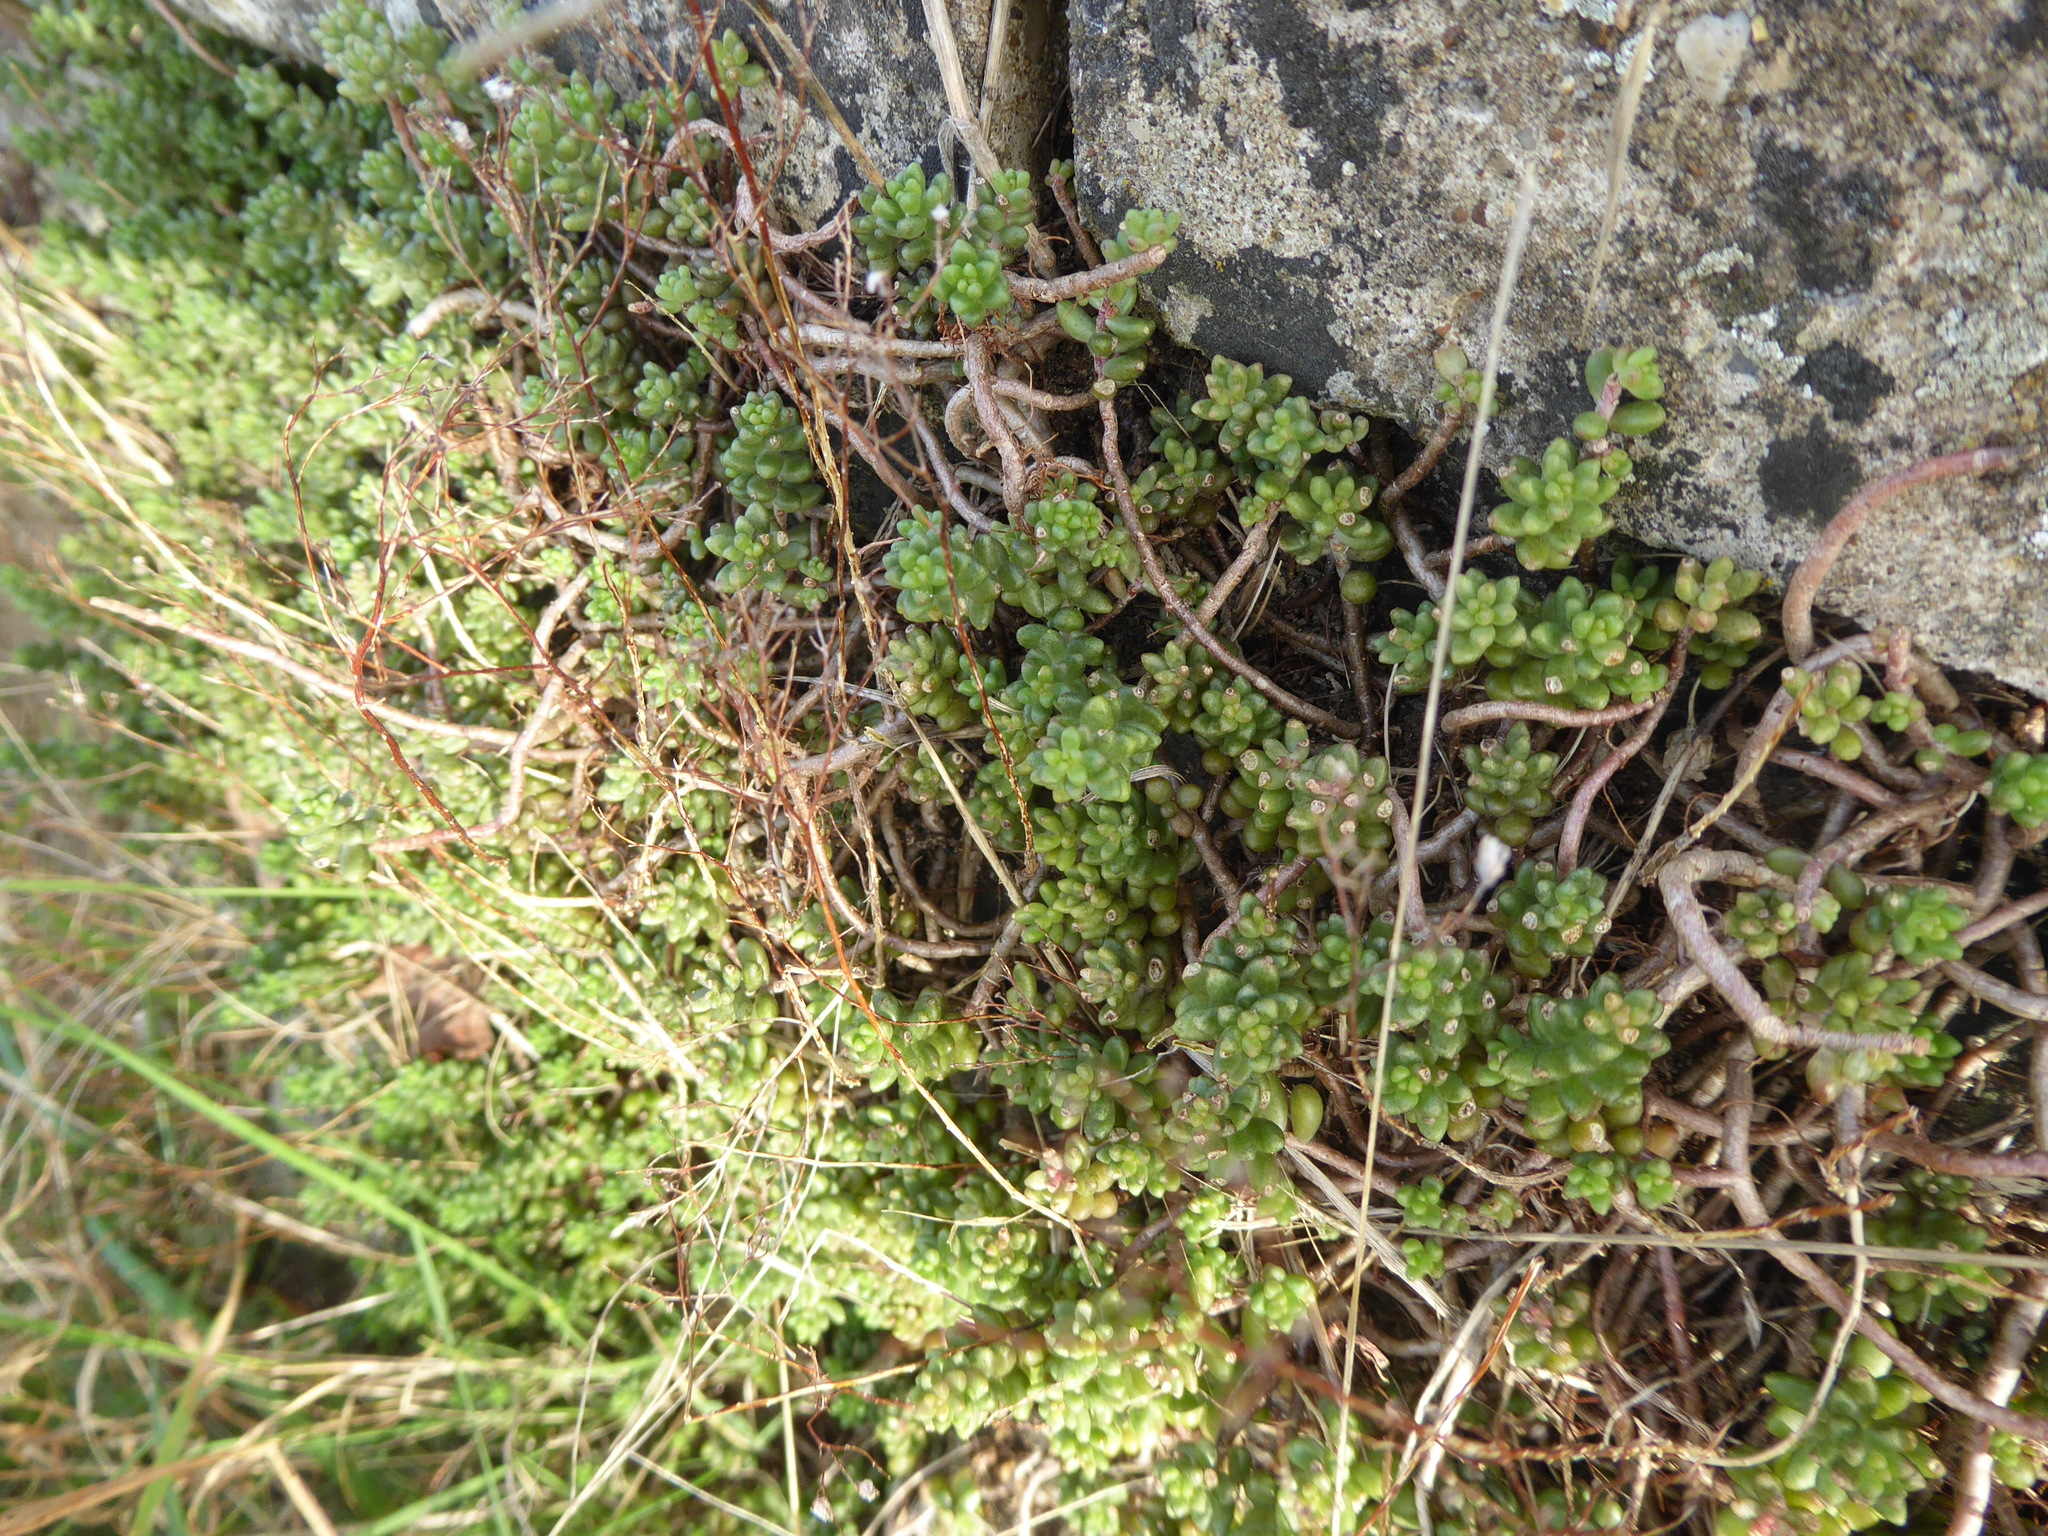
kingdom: Plantae
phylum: Tracheophyta
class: Magnoliopsida
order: Saxifragales
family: Crassulaceae
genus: Sedum
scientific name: Sedum album
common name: White stonecrop
